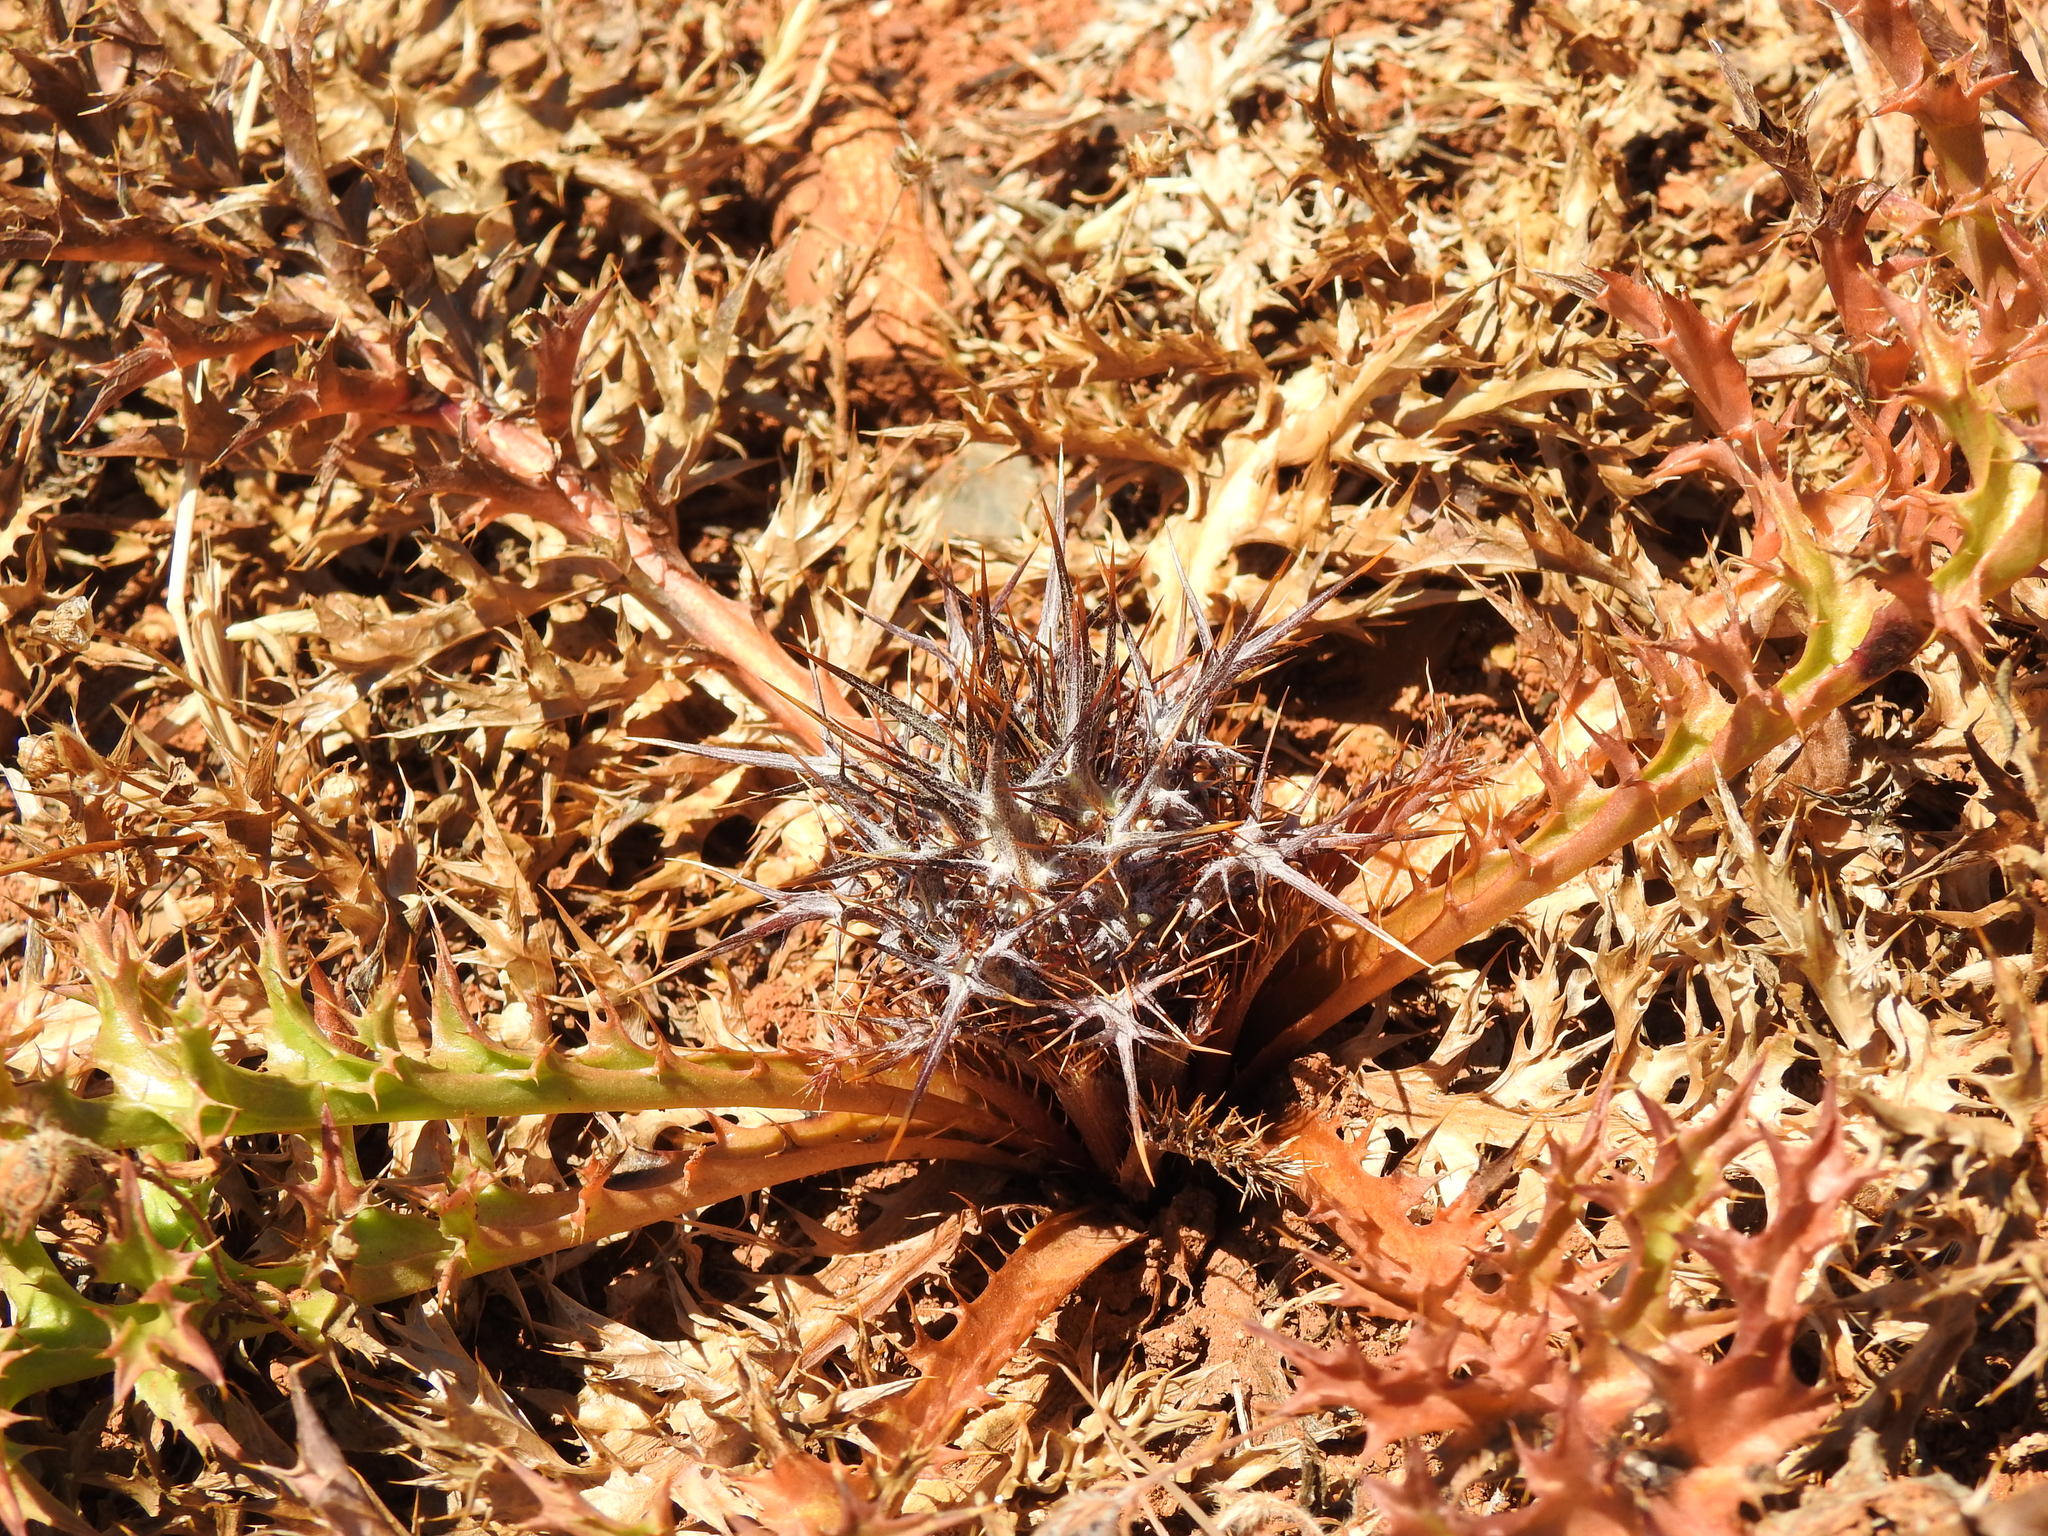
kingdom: Plantae
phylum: Tracheophyta
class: Magnoliopsida
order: Asterales
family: Asteraceae
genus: Chamaeleon
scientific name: Chamaeleon gummifer
